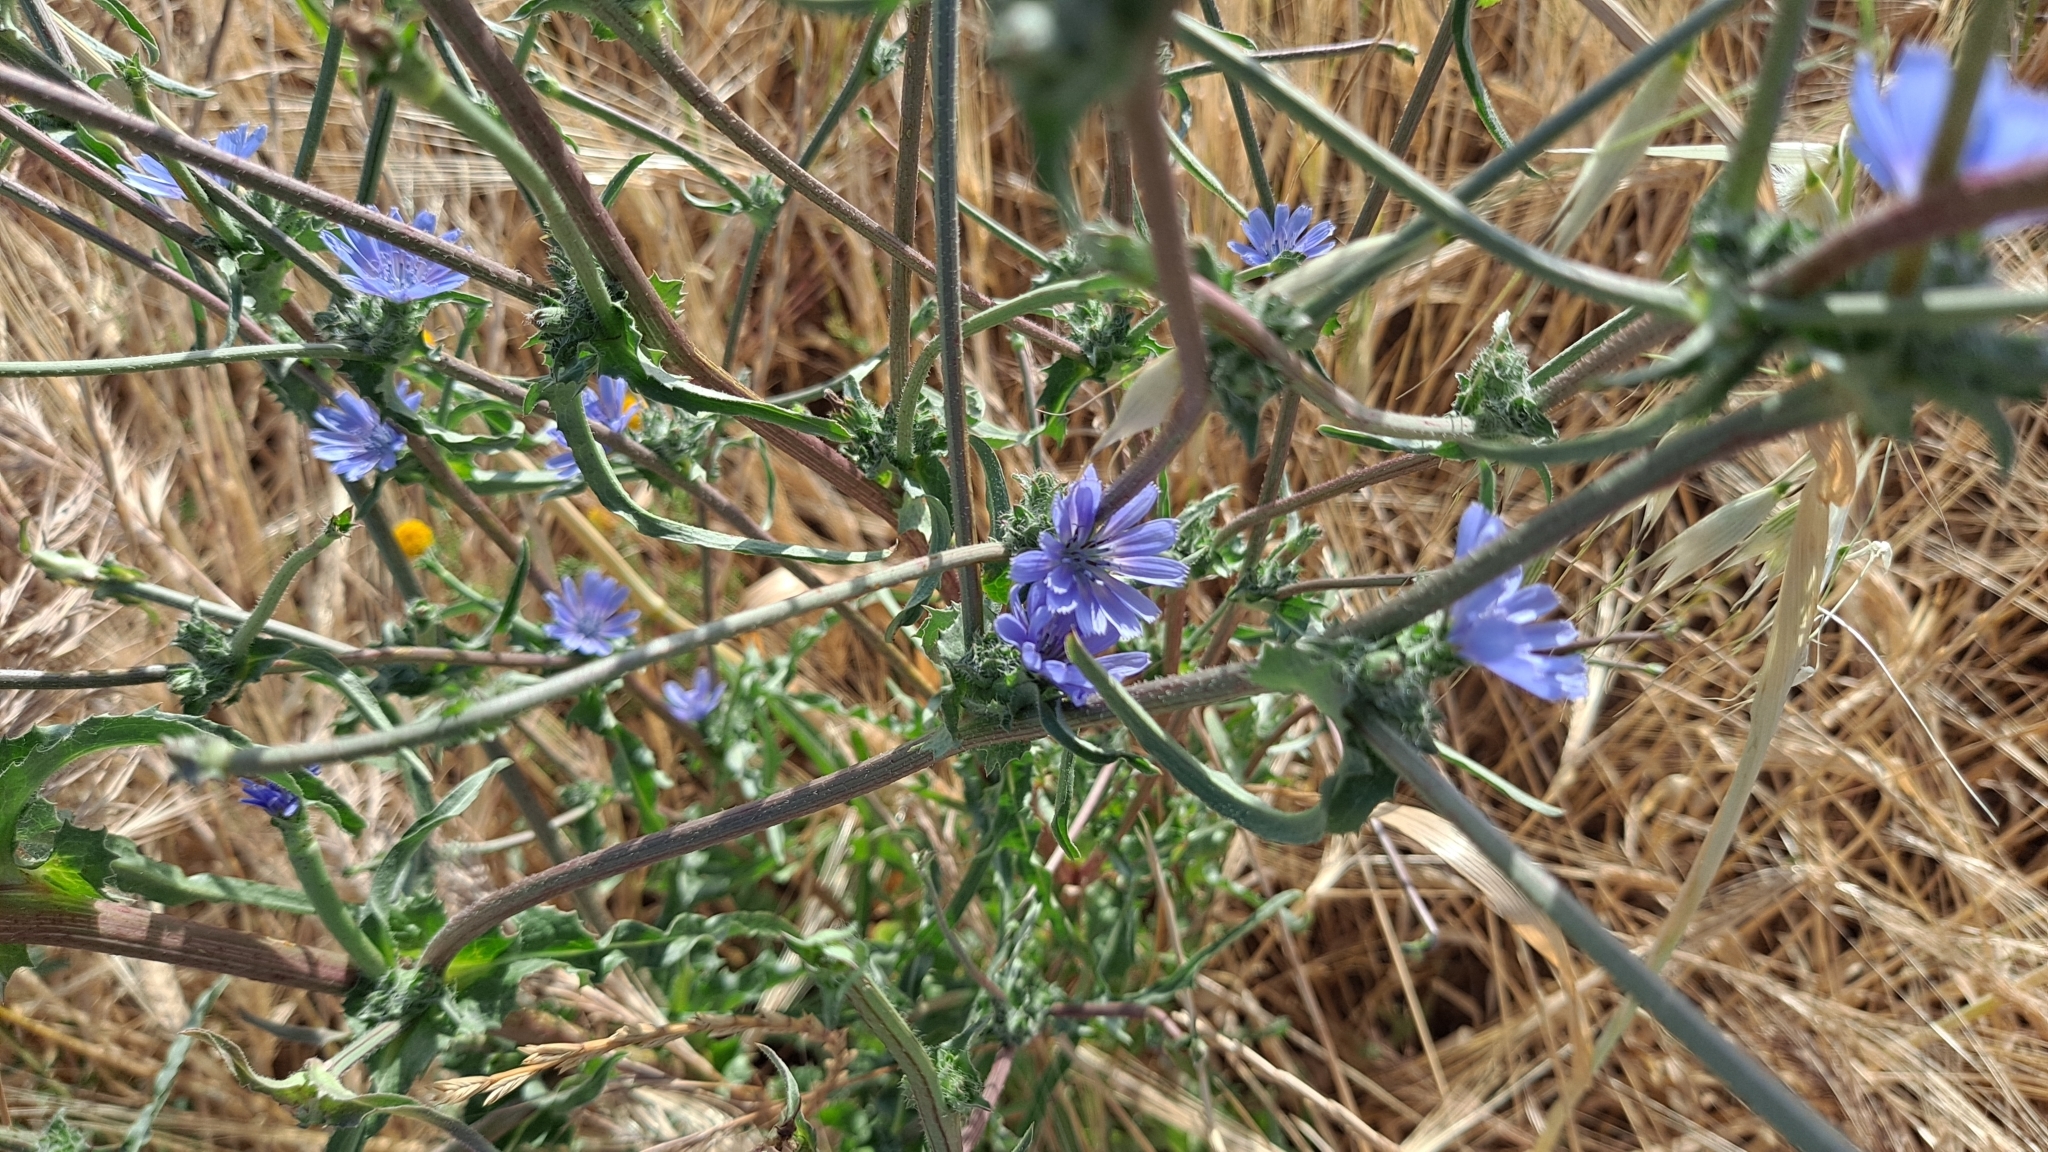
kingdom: Plantae
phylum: Tracheophyta
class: Magnoliopsida
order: Asterales
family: Asteraceae
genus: Cichorium
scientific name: Cichorium intybus
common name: Chicory
